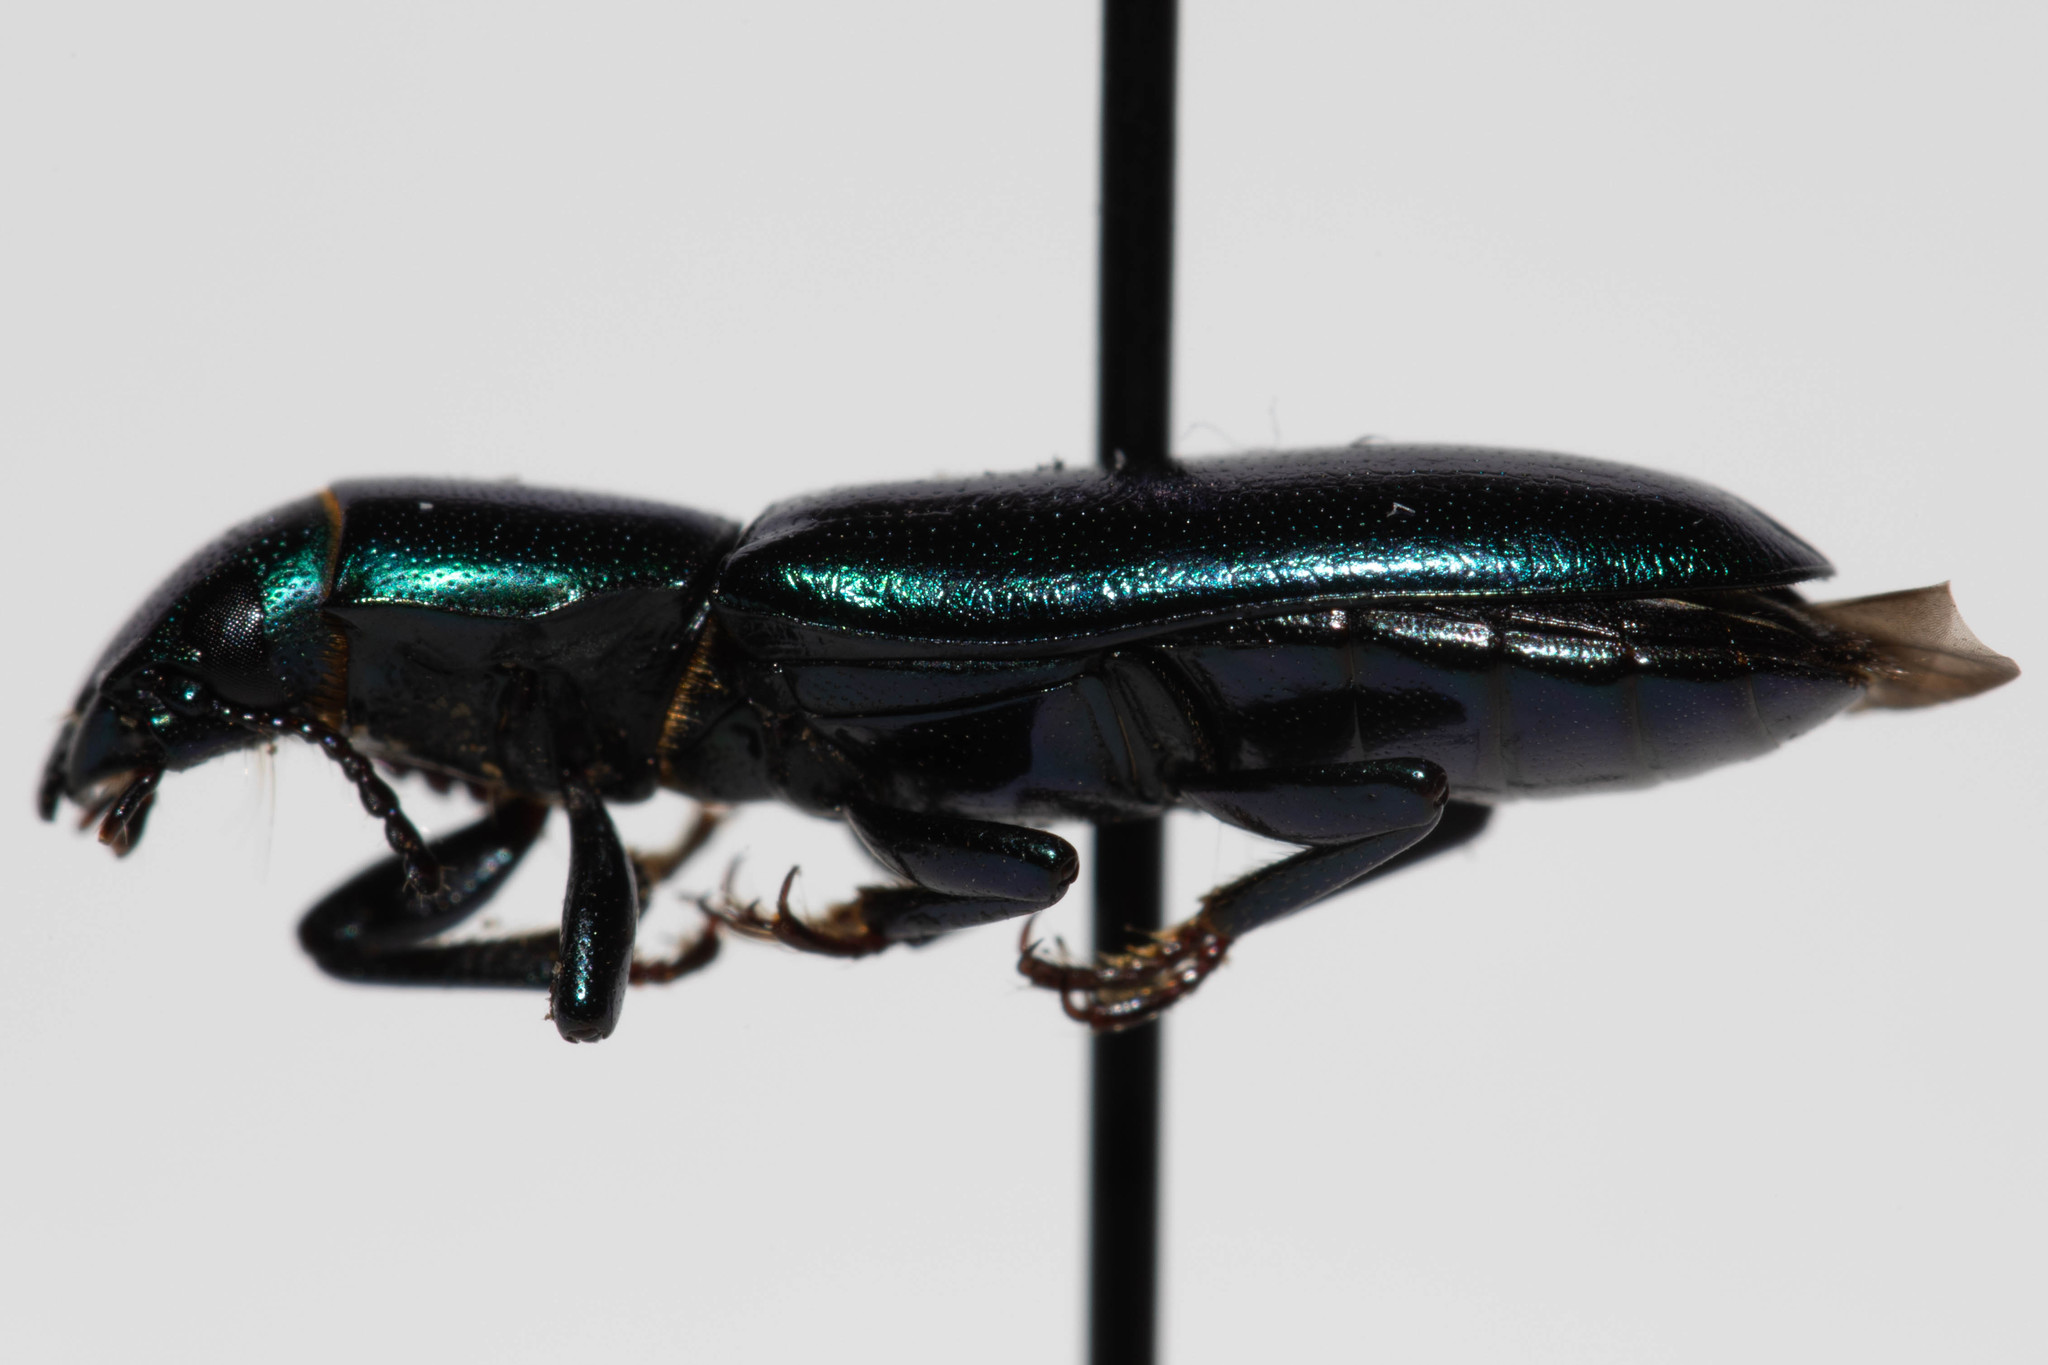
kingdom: Animalia
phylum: Arthropoda
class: Insecta
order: Coleoptera
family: Trogossitidae
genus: Temnoscheila
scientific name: Temnoscheila chlorodia
